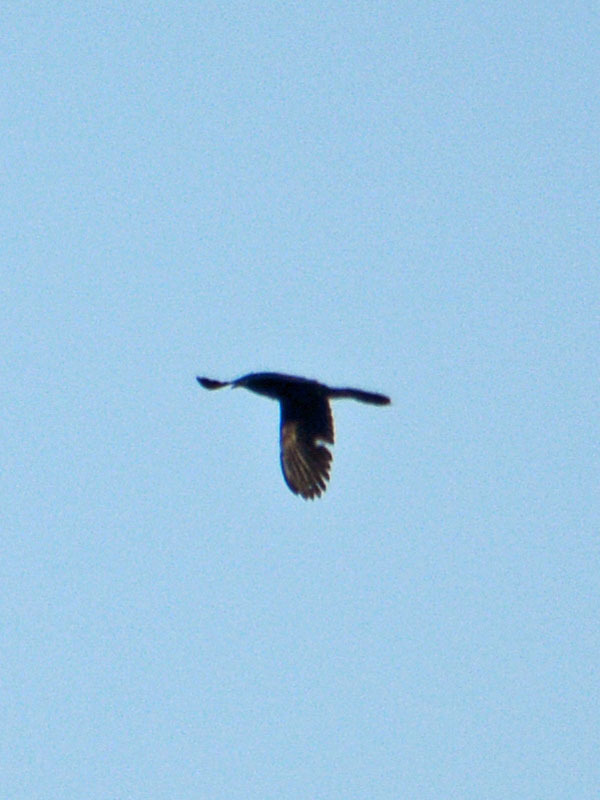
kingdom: Animalia
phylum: Chordata
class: Aves
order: Passeriformes
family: Icteridae
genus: Quiscalus
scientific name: Quiscalus mexicanus
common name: Great-tailed grackle
